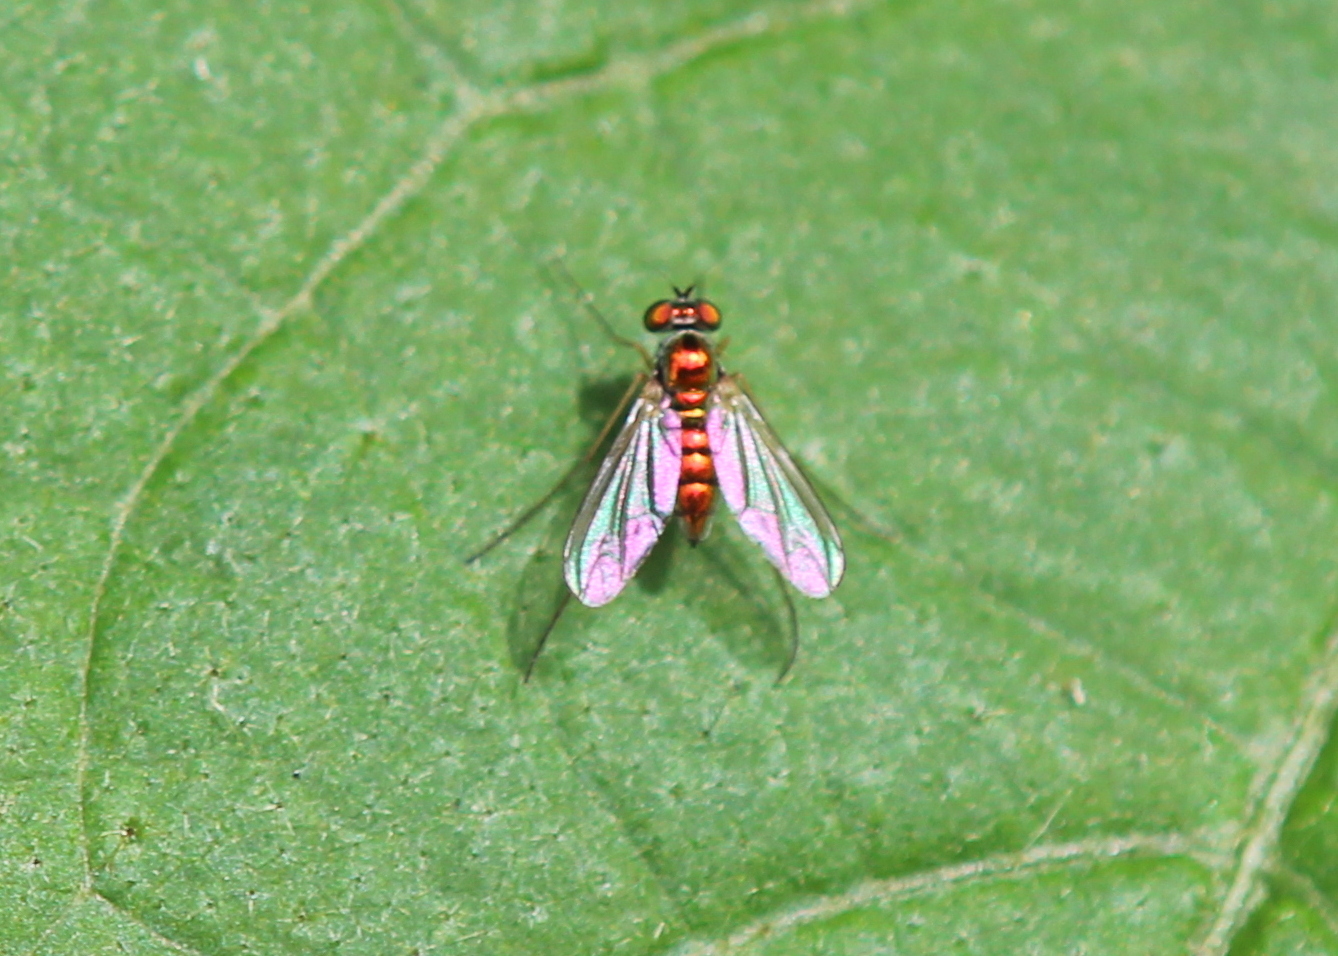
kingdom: Animalia
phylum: Arthropoda
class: Insecta
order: Diptera
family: Dolichopodidae
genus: Amblypsilopus
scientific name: Amblypsilopus scintillans
